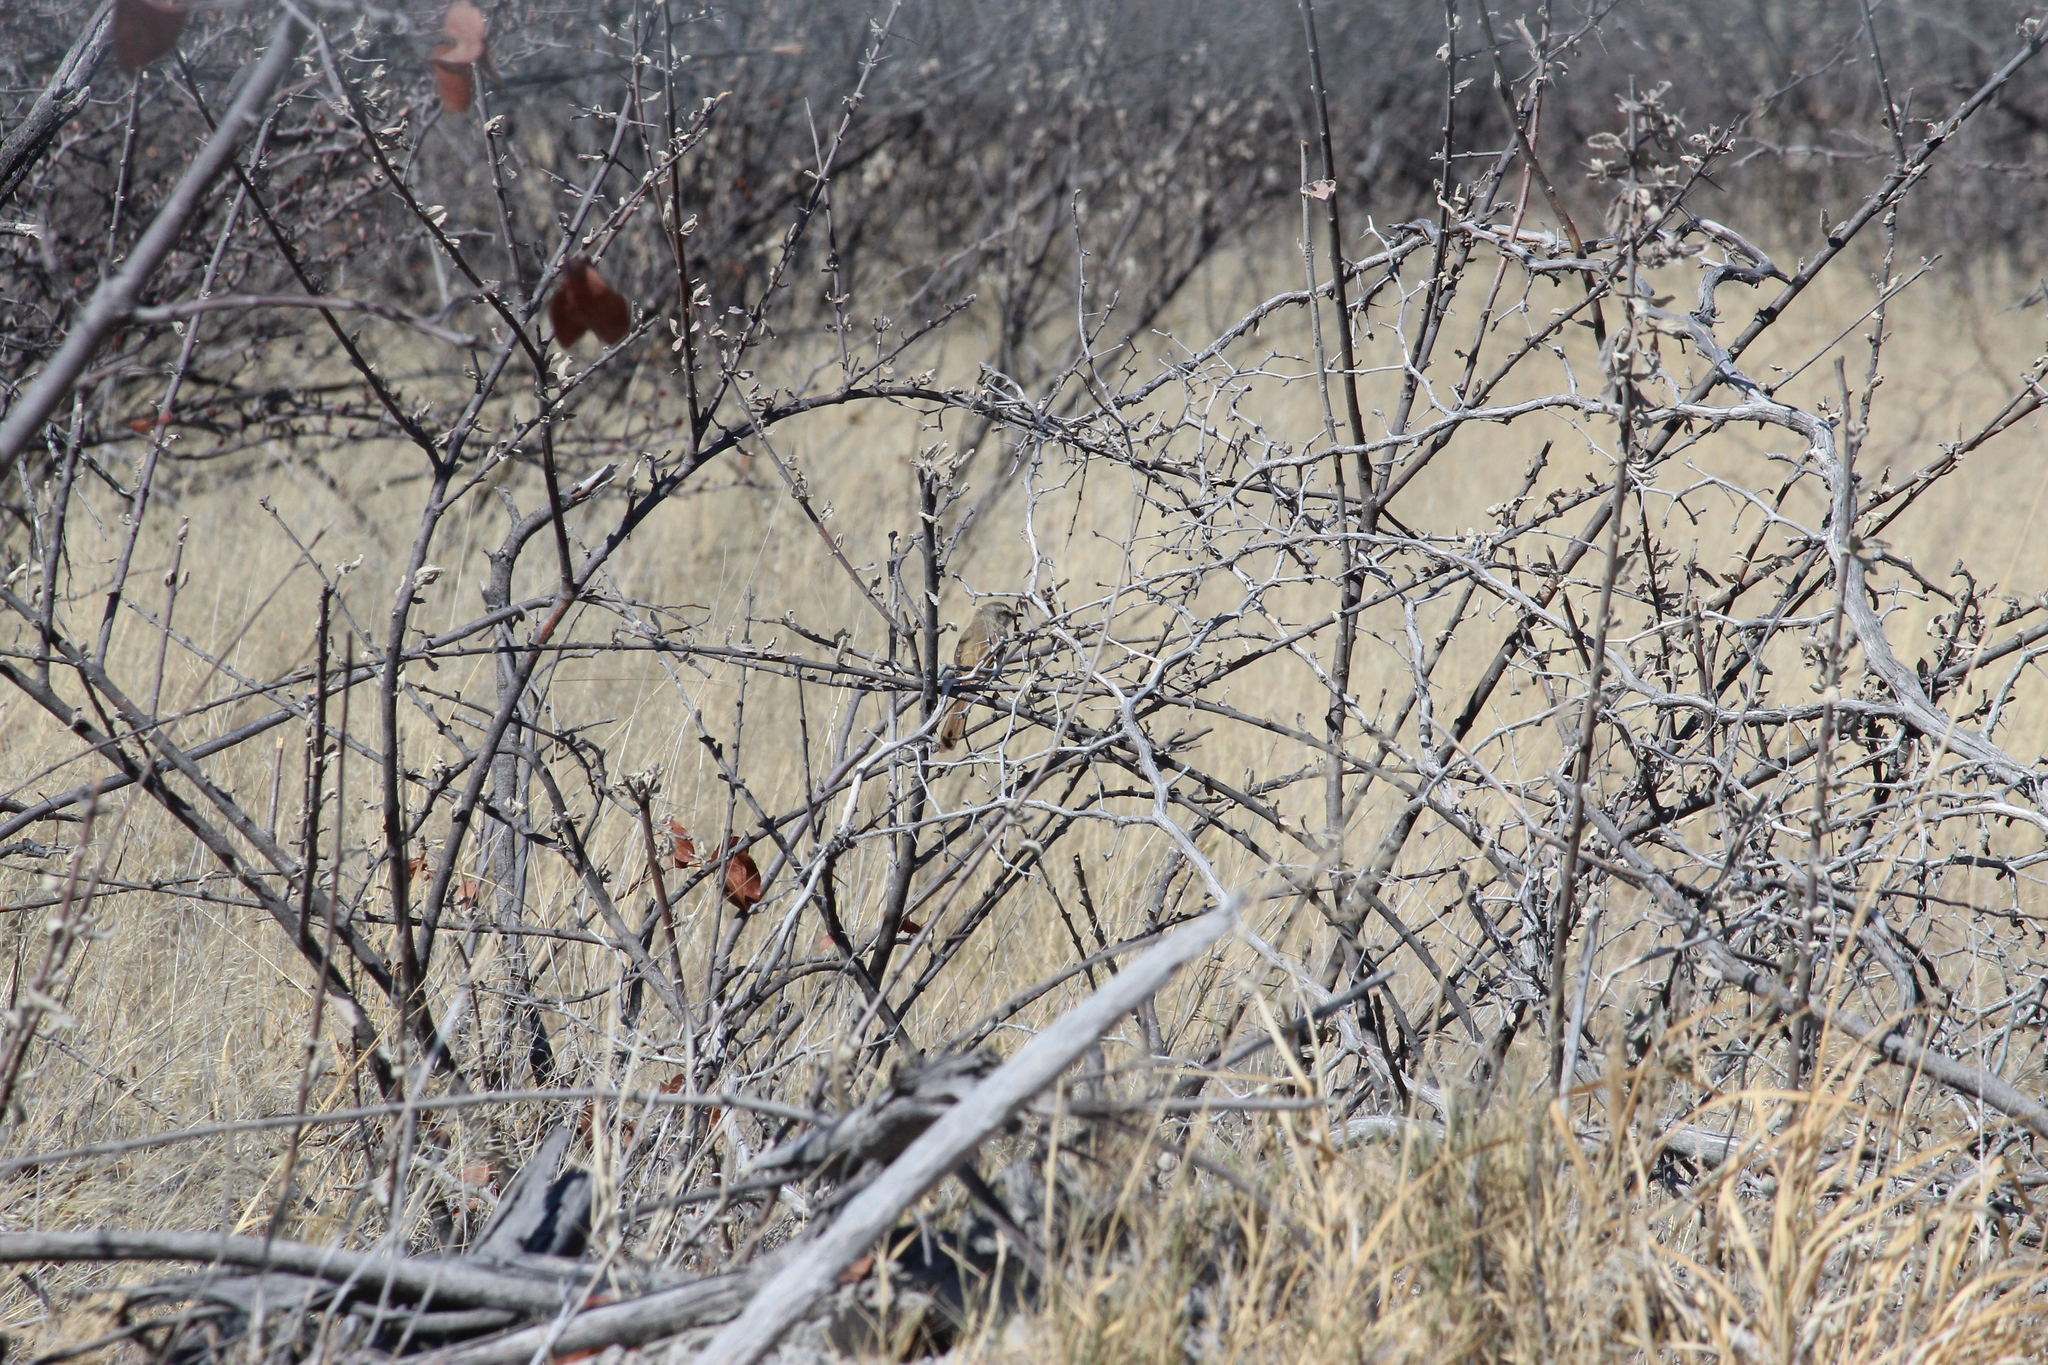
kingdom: Animalia
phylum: Chordata
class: Aves
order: Passeriformes
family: Muscicapidae
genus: Erythropygia
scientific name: Erythropygia paena
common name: Kalahari scrub robin
